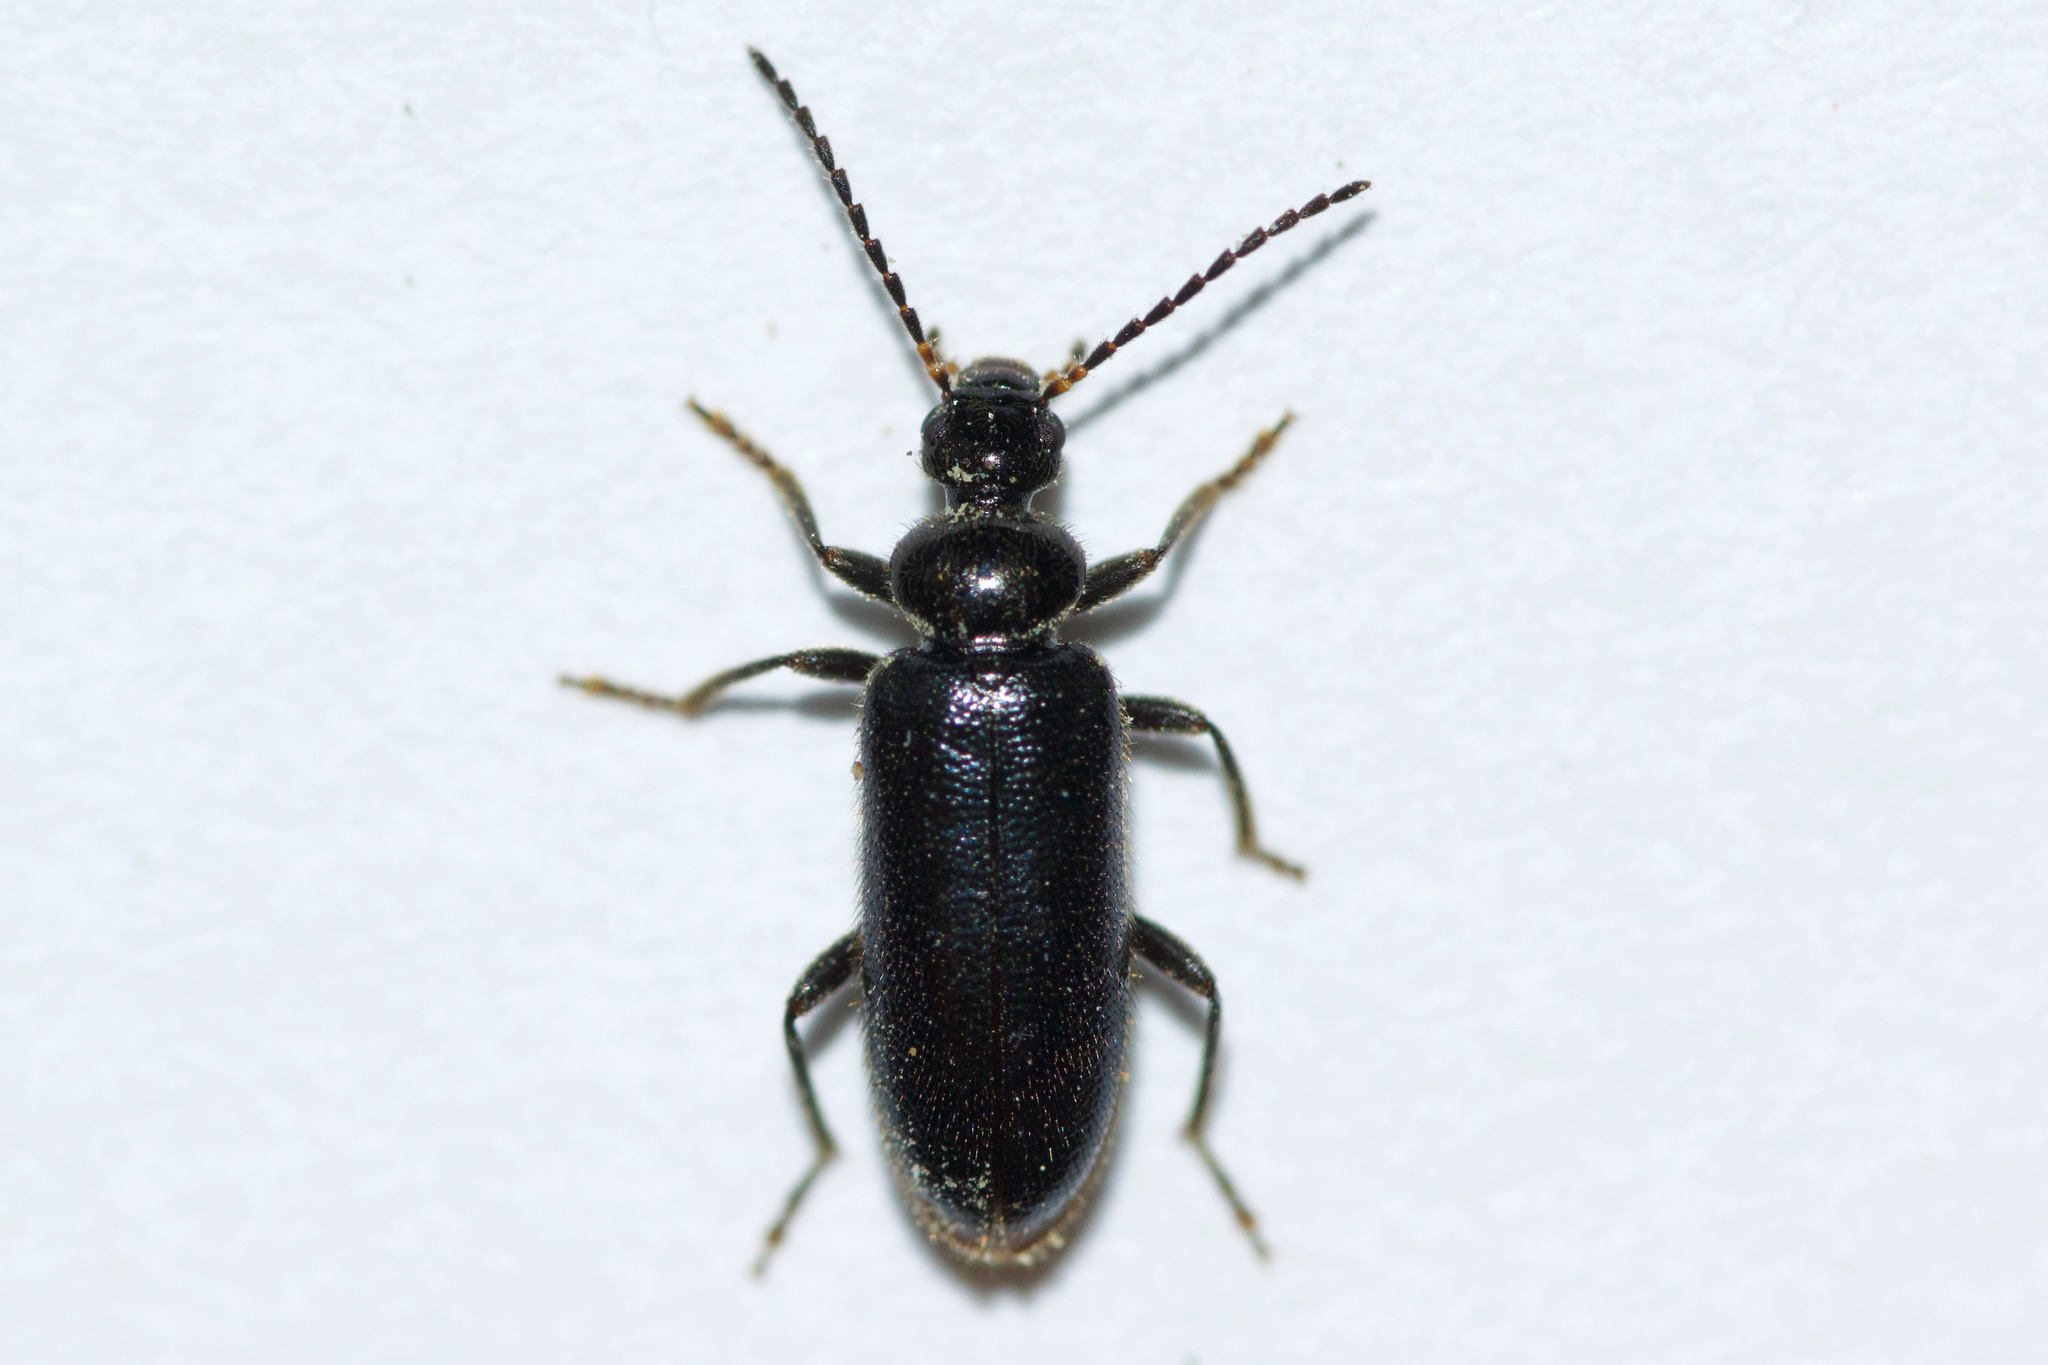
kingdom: Animalia
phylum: Arthropoda
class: Insecta
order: Coleoptera
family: Pyrochroidae
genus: Pedilus
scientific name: Pedilus lugubris
